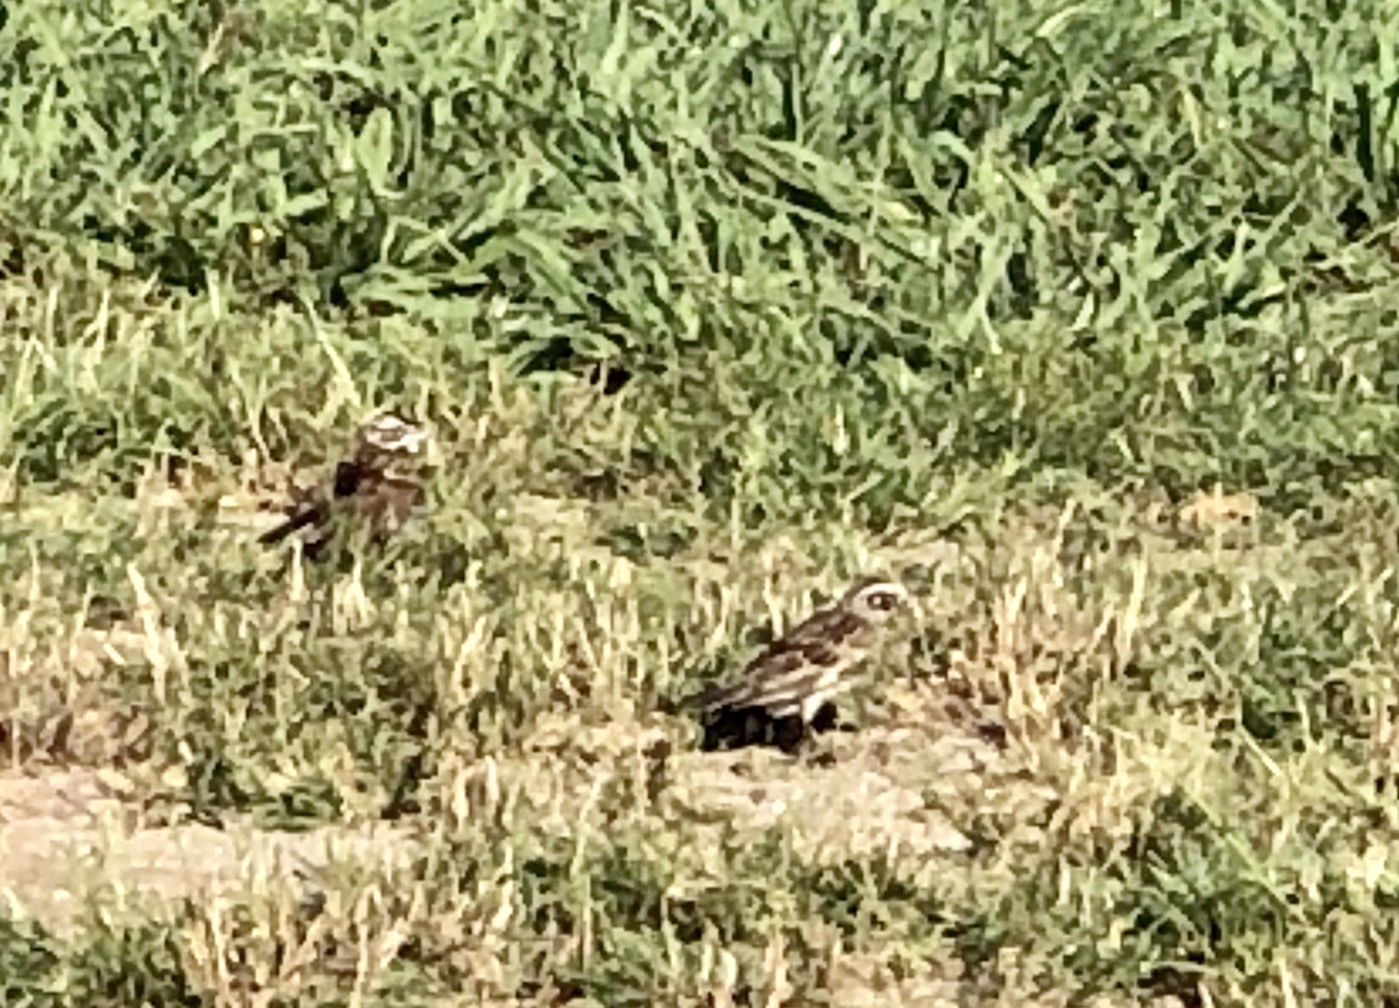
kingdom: Animalia
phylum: Chordata
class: Aves
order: Passeriformes
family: Passerellidae
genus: Chondestes
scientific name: Chondestes grammacus
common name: Lark sparrow
